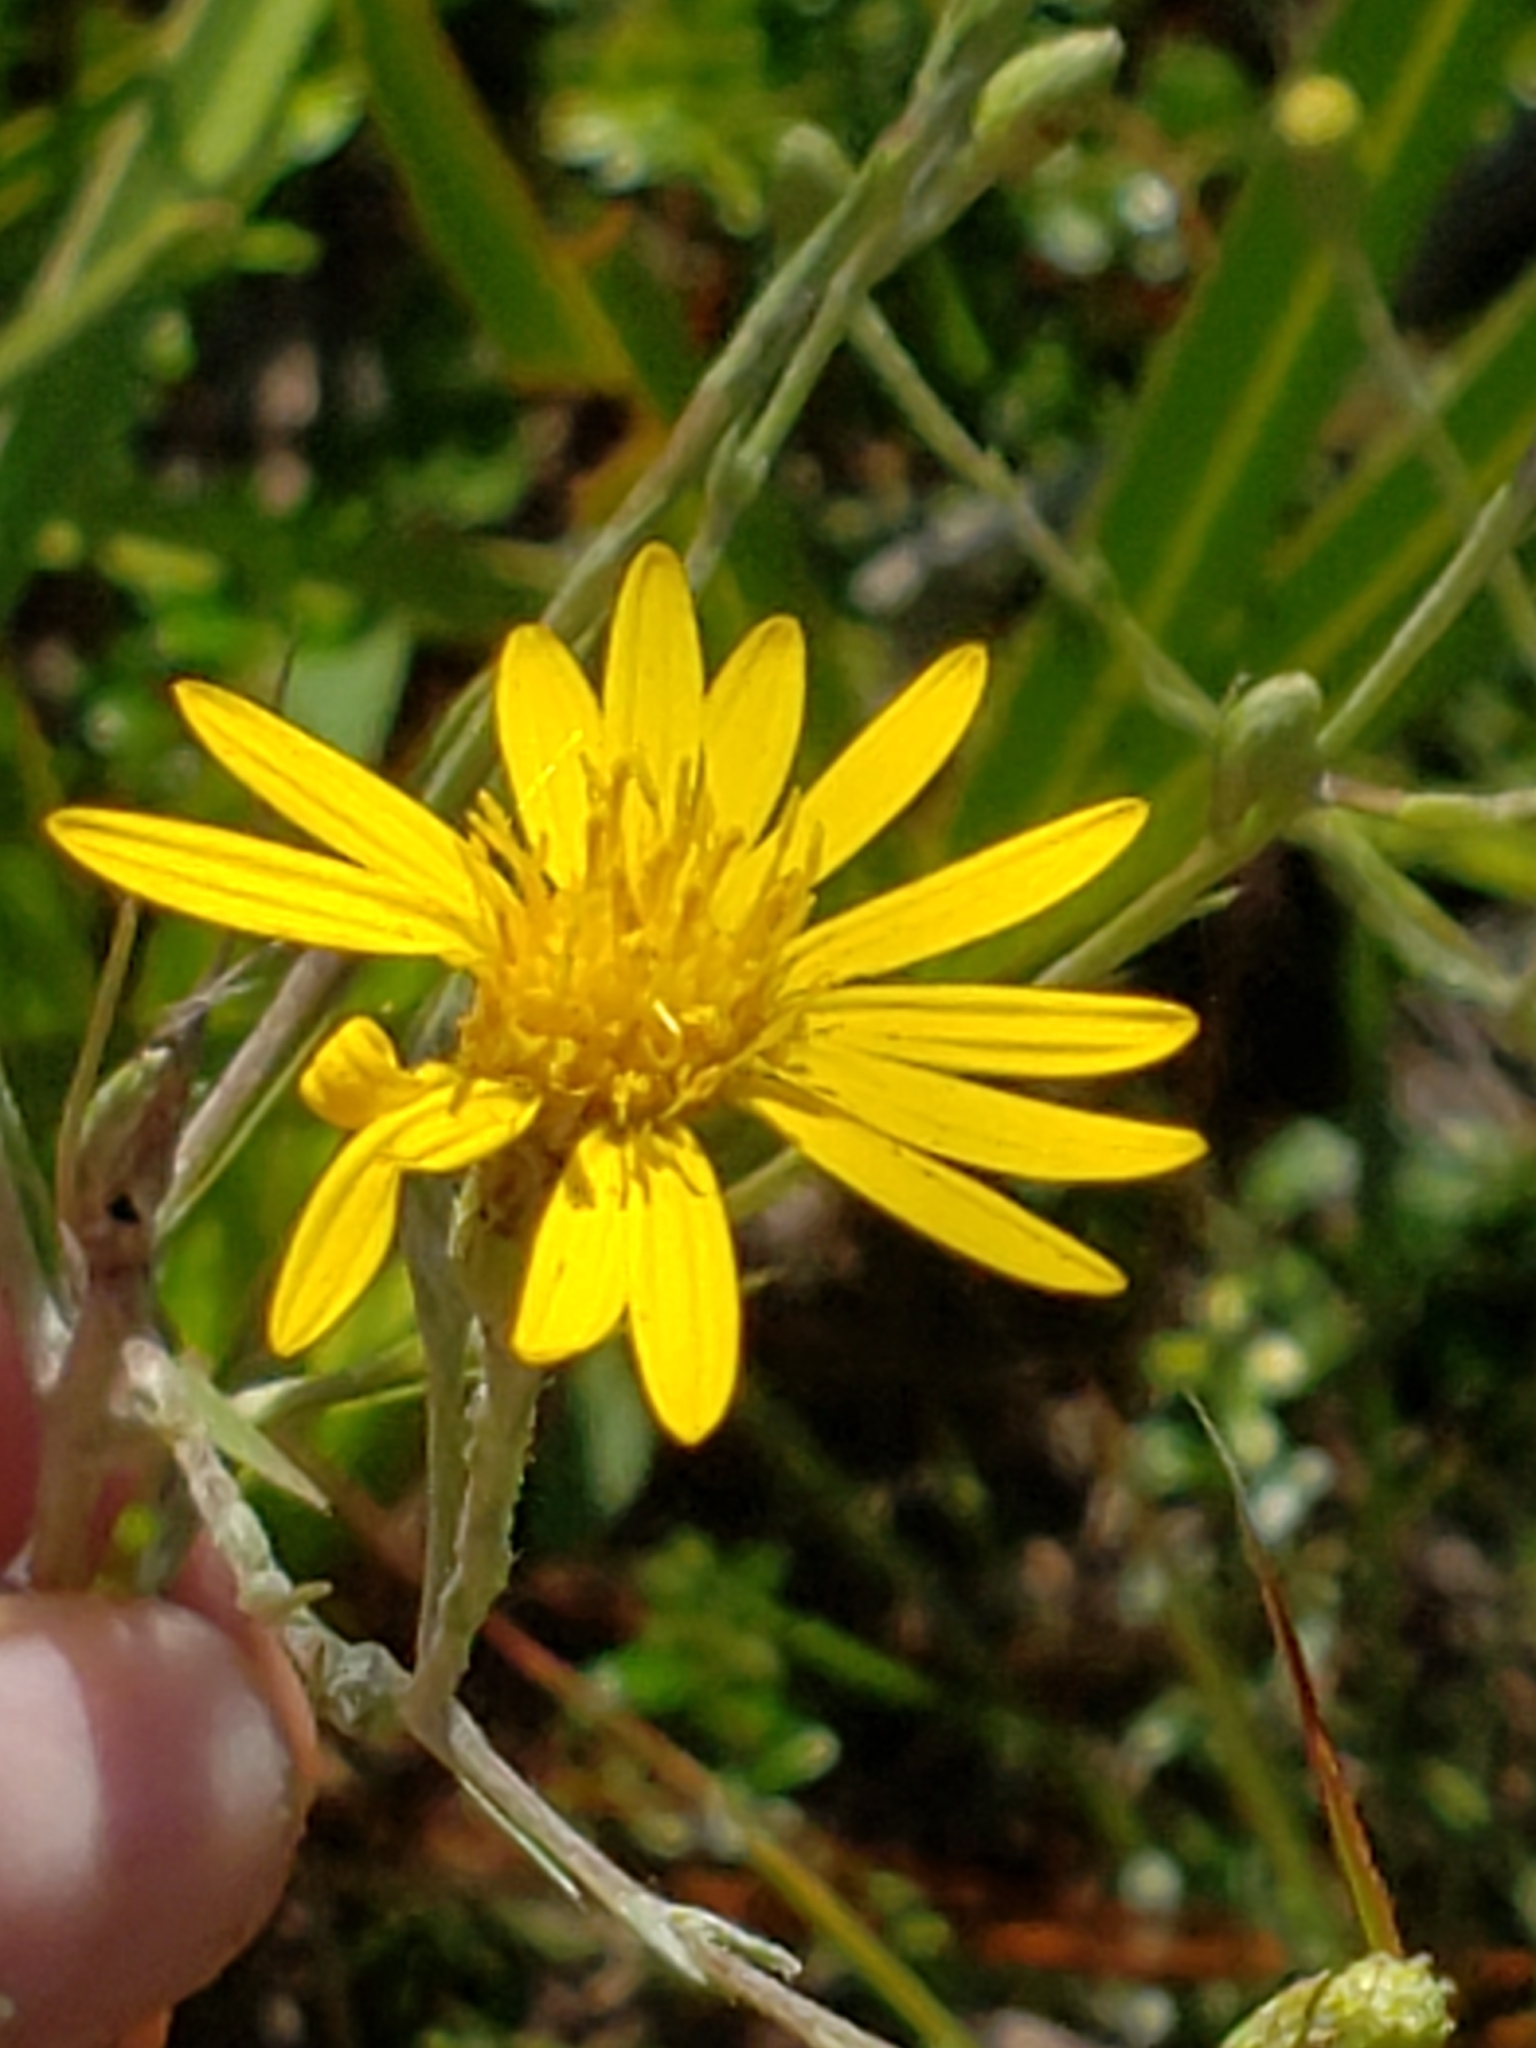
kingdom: Plantae
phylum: Tracheophyta
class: Magnoliopsida
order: Asterales
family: Asteraceae
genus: Pityopsis
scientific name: Pityopsis graminifolia
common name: Grass-leaf golden-aster
